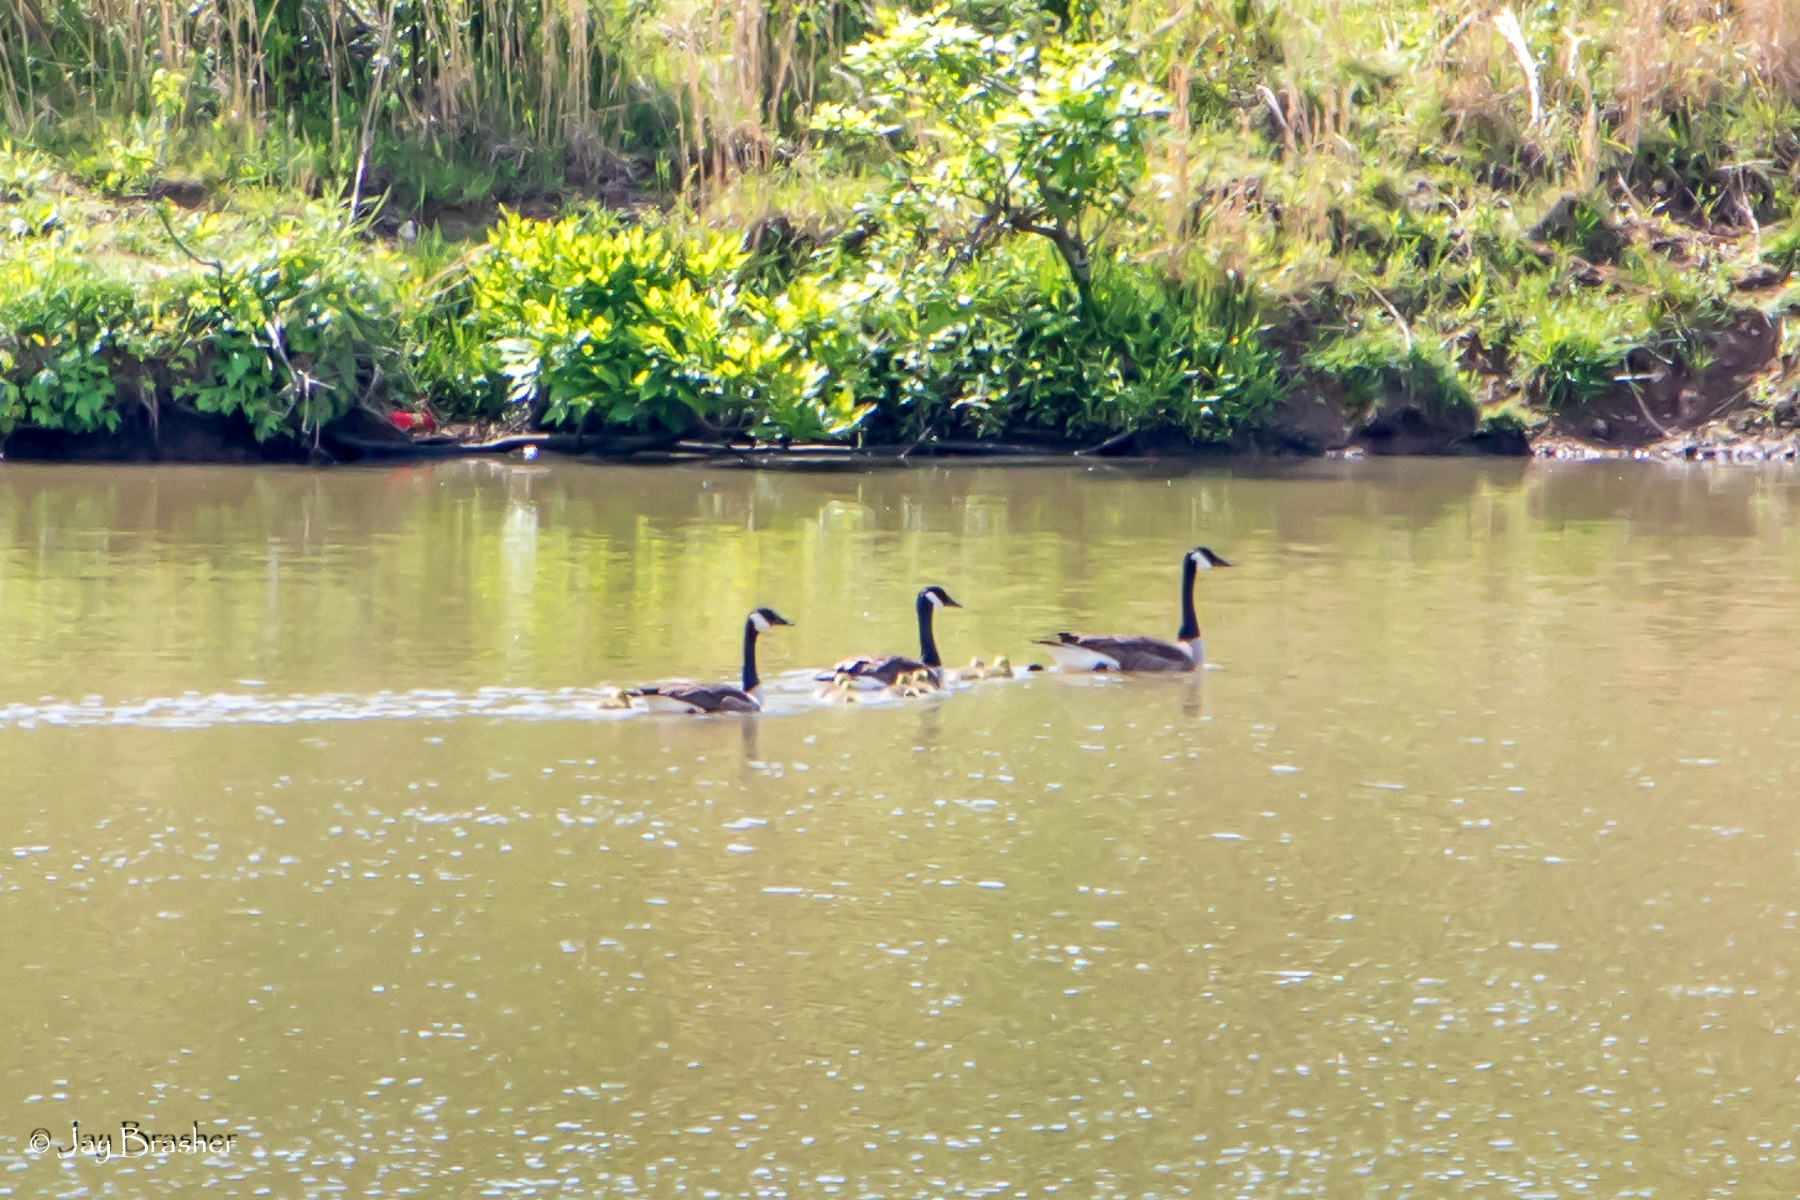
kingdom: Animalia
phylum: Chordata
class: Aves
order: Anseriformes
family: Anatidae
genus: Branta
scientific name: Branta canadensis
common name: Canada goose
